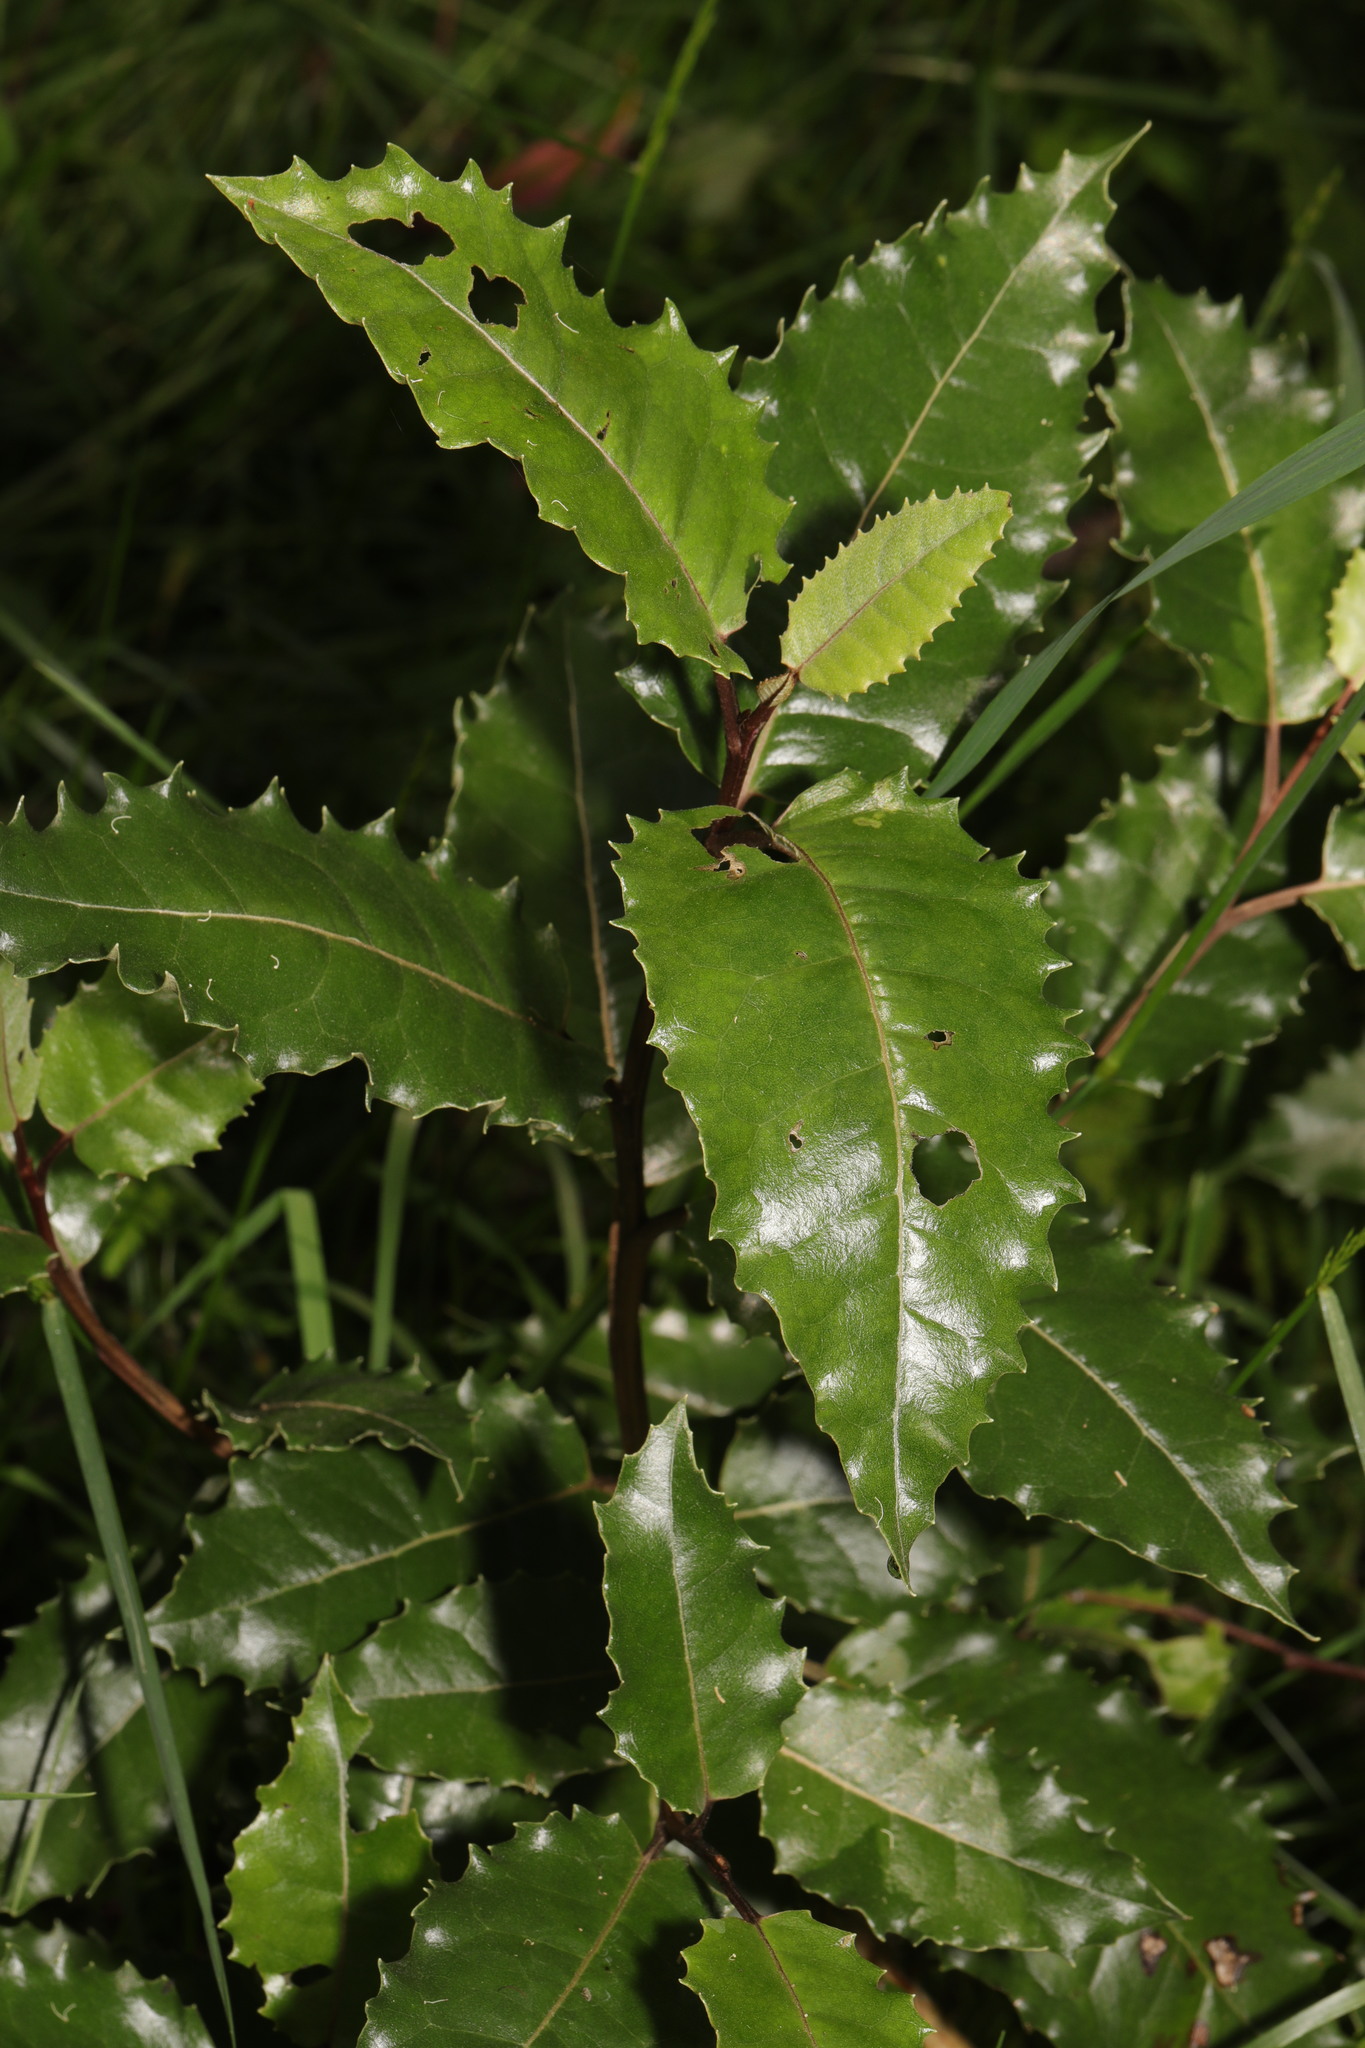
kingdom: Plantae
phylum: Tracheophyta
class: Magnoliopsida
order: Asterales
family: Asteraceae
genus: Olearia
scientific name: Olearia ilicifolia
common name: Maori-holly
